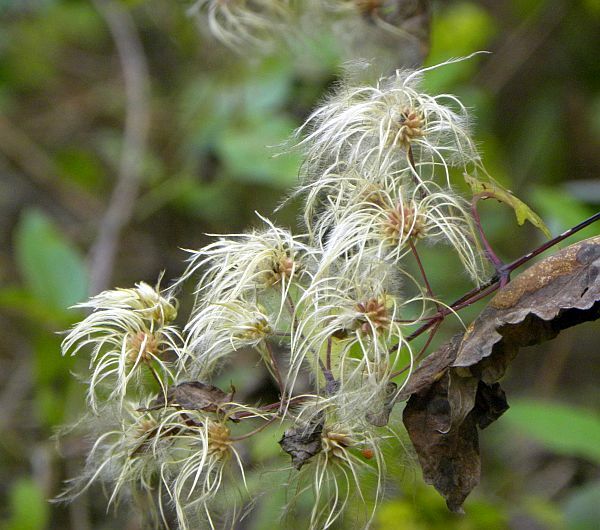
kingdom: Plantae
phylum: Tracheophyta
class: Magnoliopsida
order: Ranunculales
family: Ranunculaceae
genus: Clematis
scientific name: Clematis virginiana
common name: Virgin's-bower
